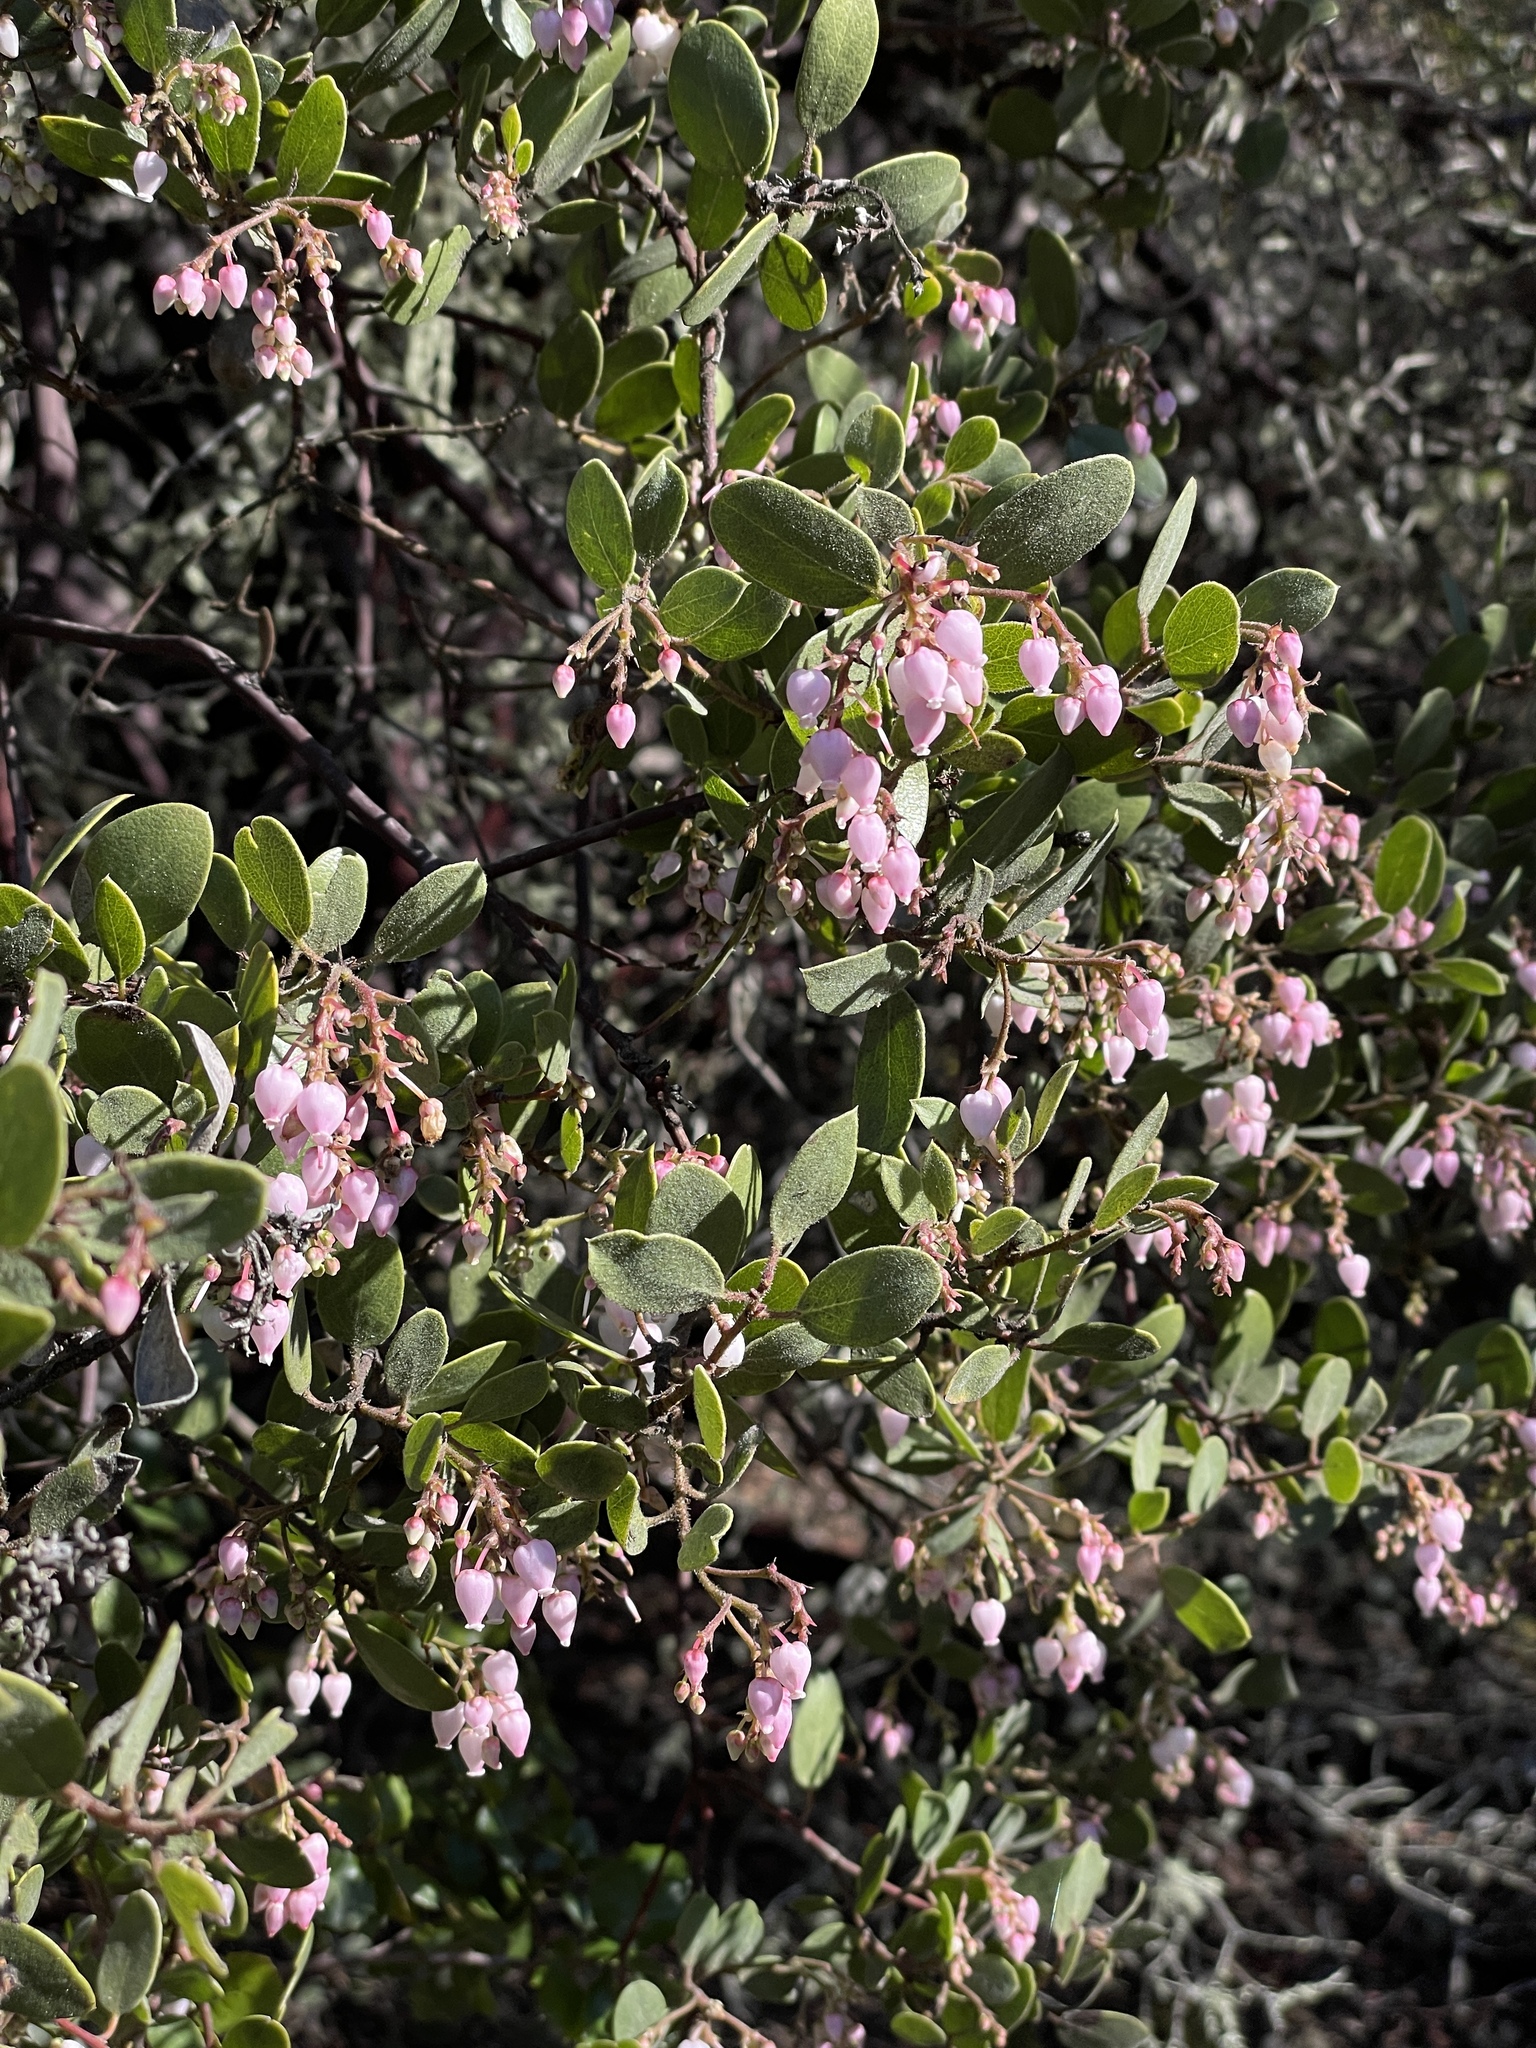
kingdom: Plantae
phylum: Tracheophyta
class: Magnoliopsida
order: Ericales
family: Ericaceae
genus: Arctostaphylos
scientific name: Arctostaphylos bakeri
